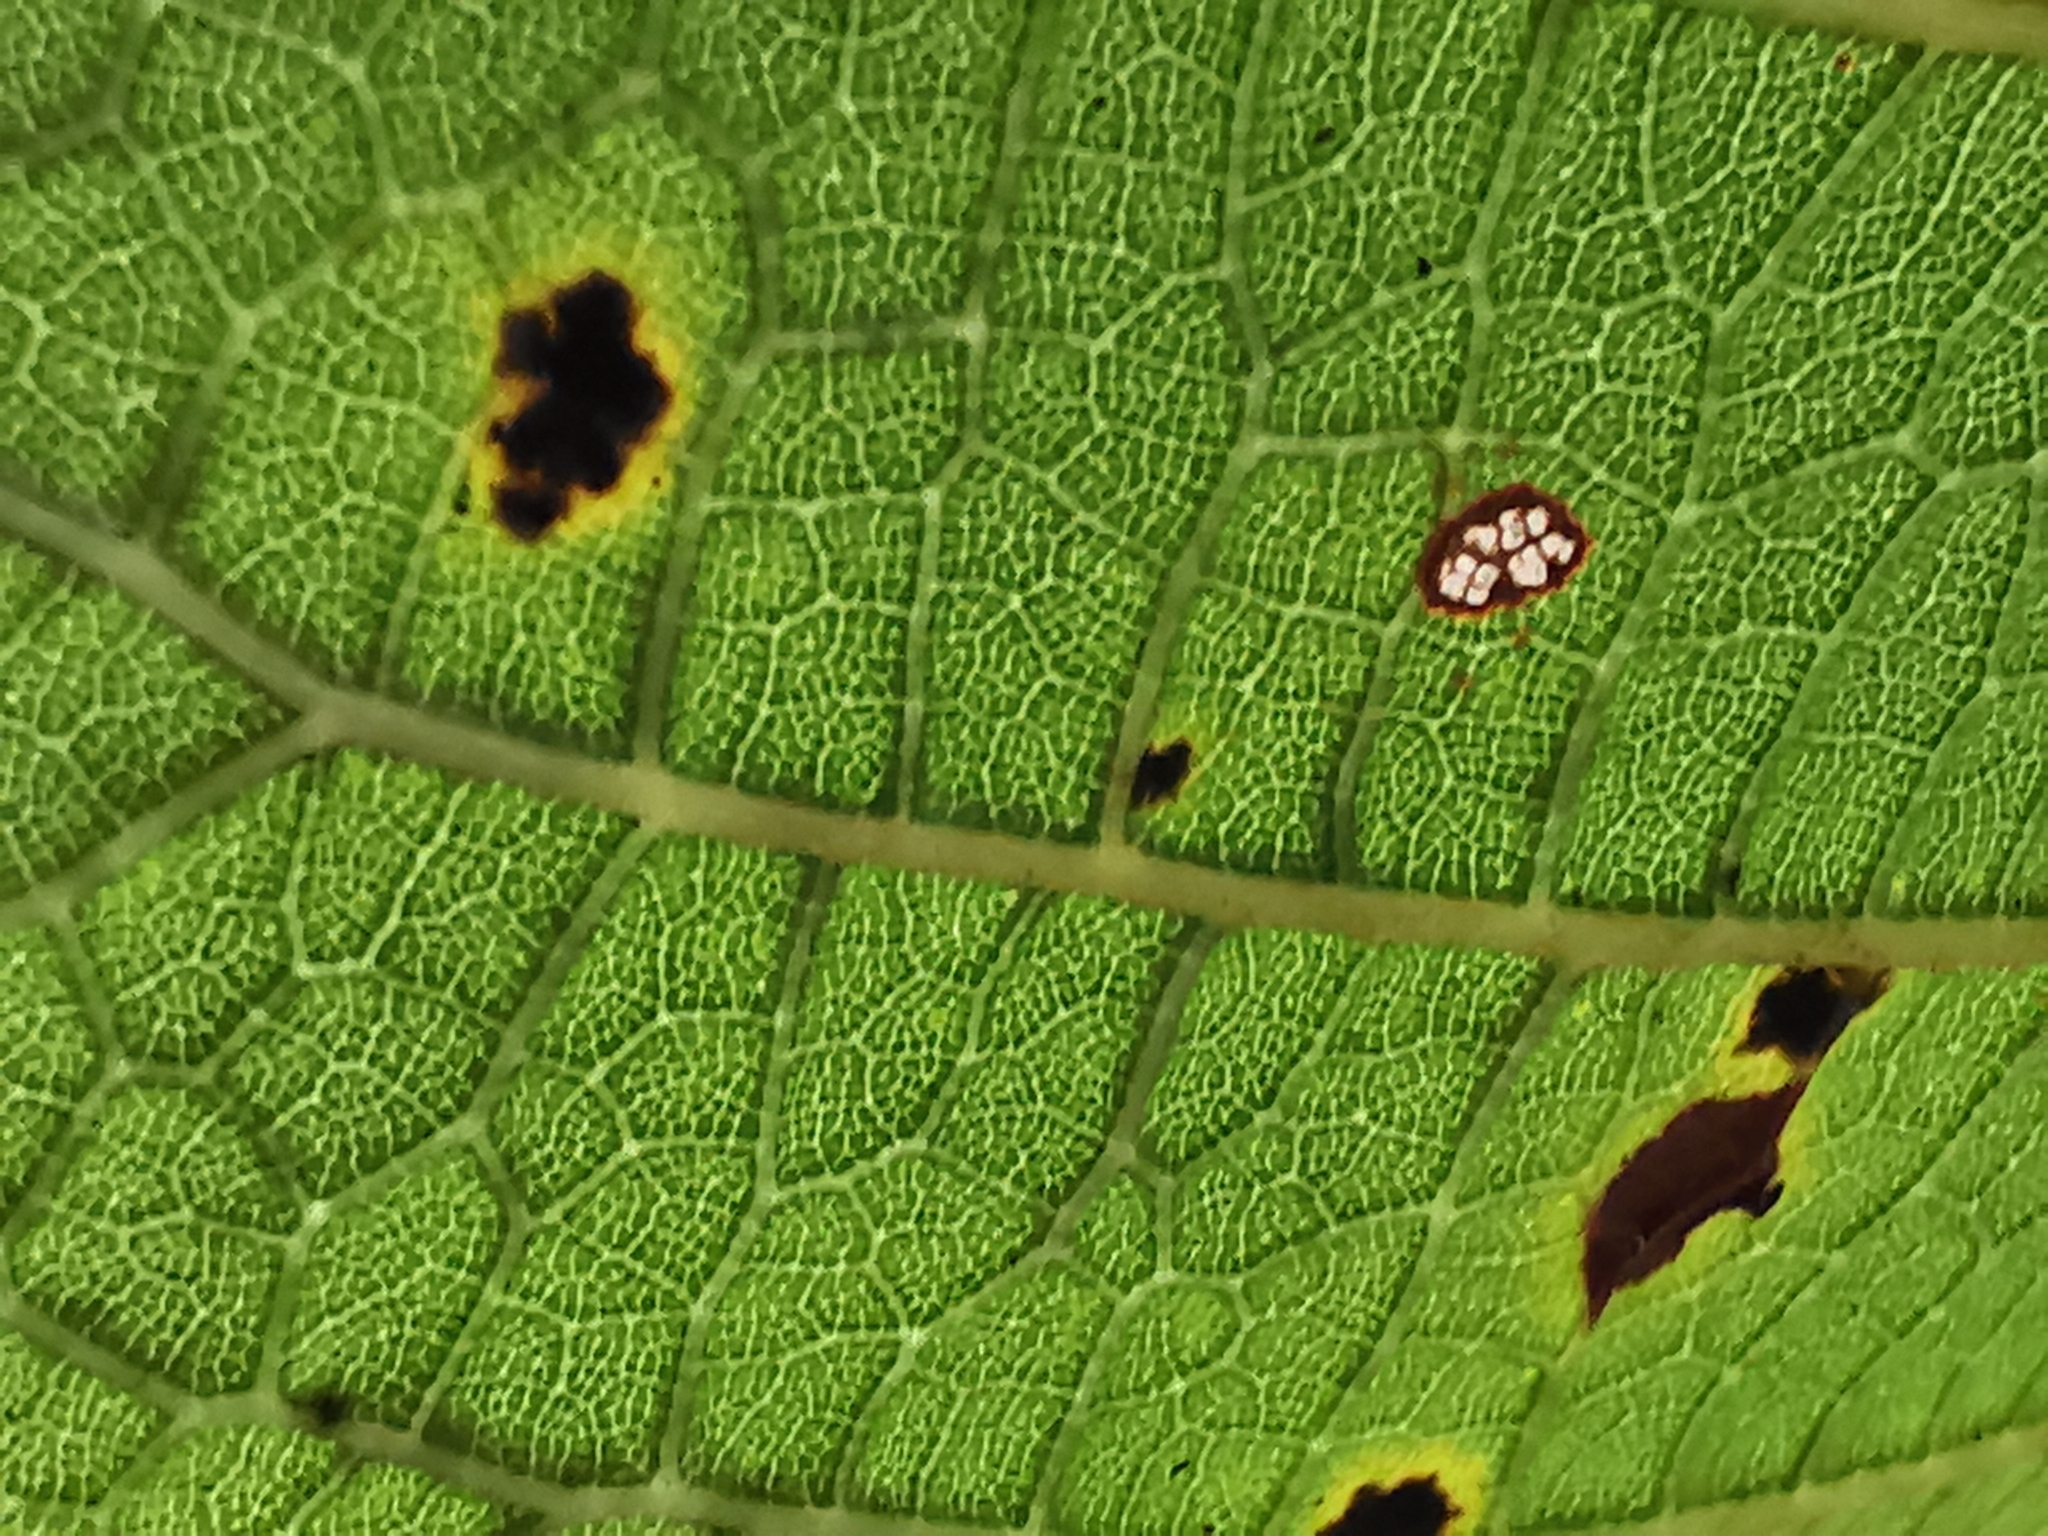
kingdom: Plantae
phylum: Tracheophyta
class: Magnoliopsida
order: Fagales
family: Fagaceae
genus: Quercus
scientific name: Quercus rysophylla
